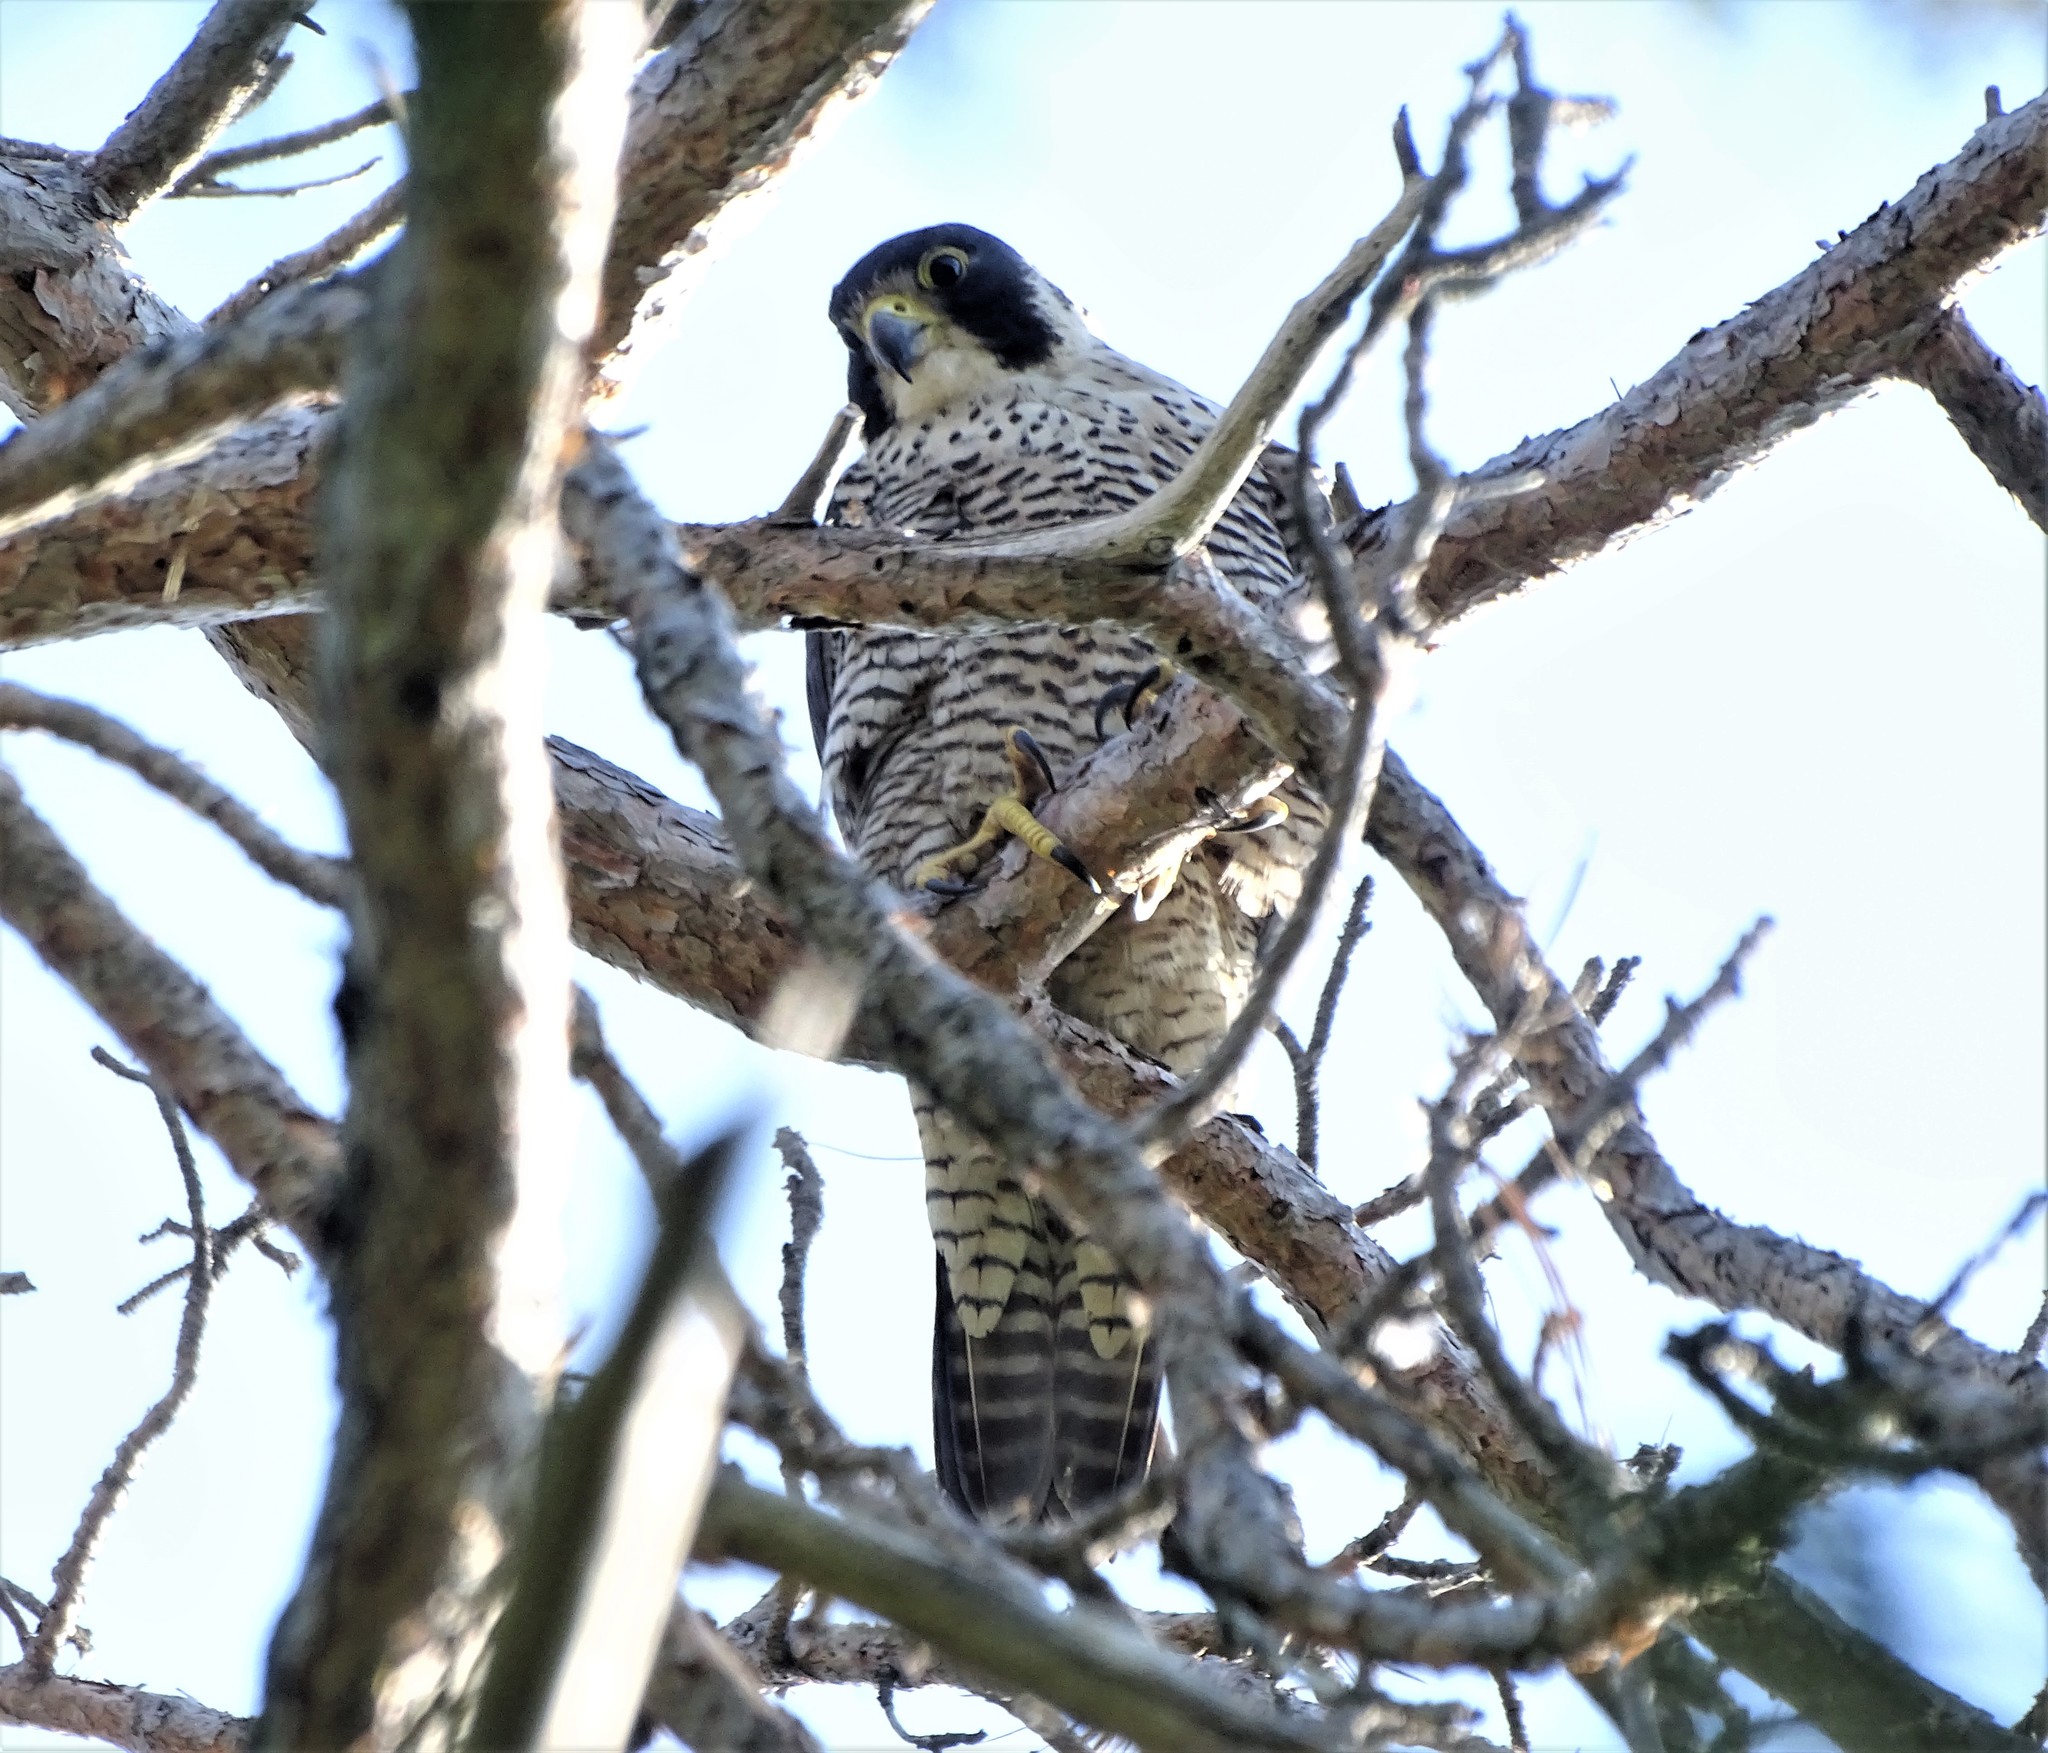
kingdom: Animalia
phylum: Chordata
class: Aves
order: Falconiformes
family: Falconidae
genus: Falco
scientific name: Falco peregrinus
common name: Peregrine falcon
